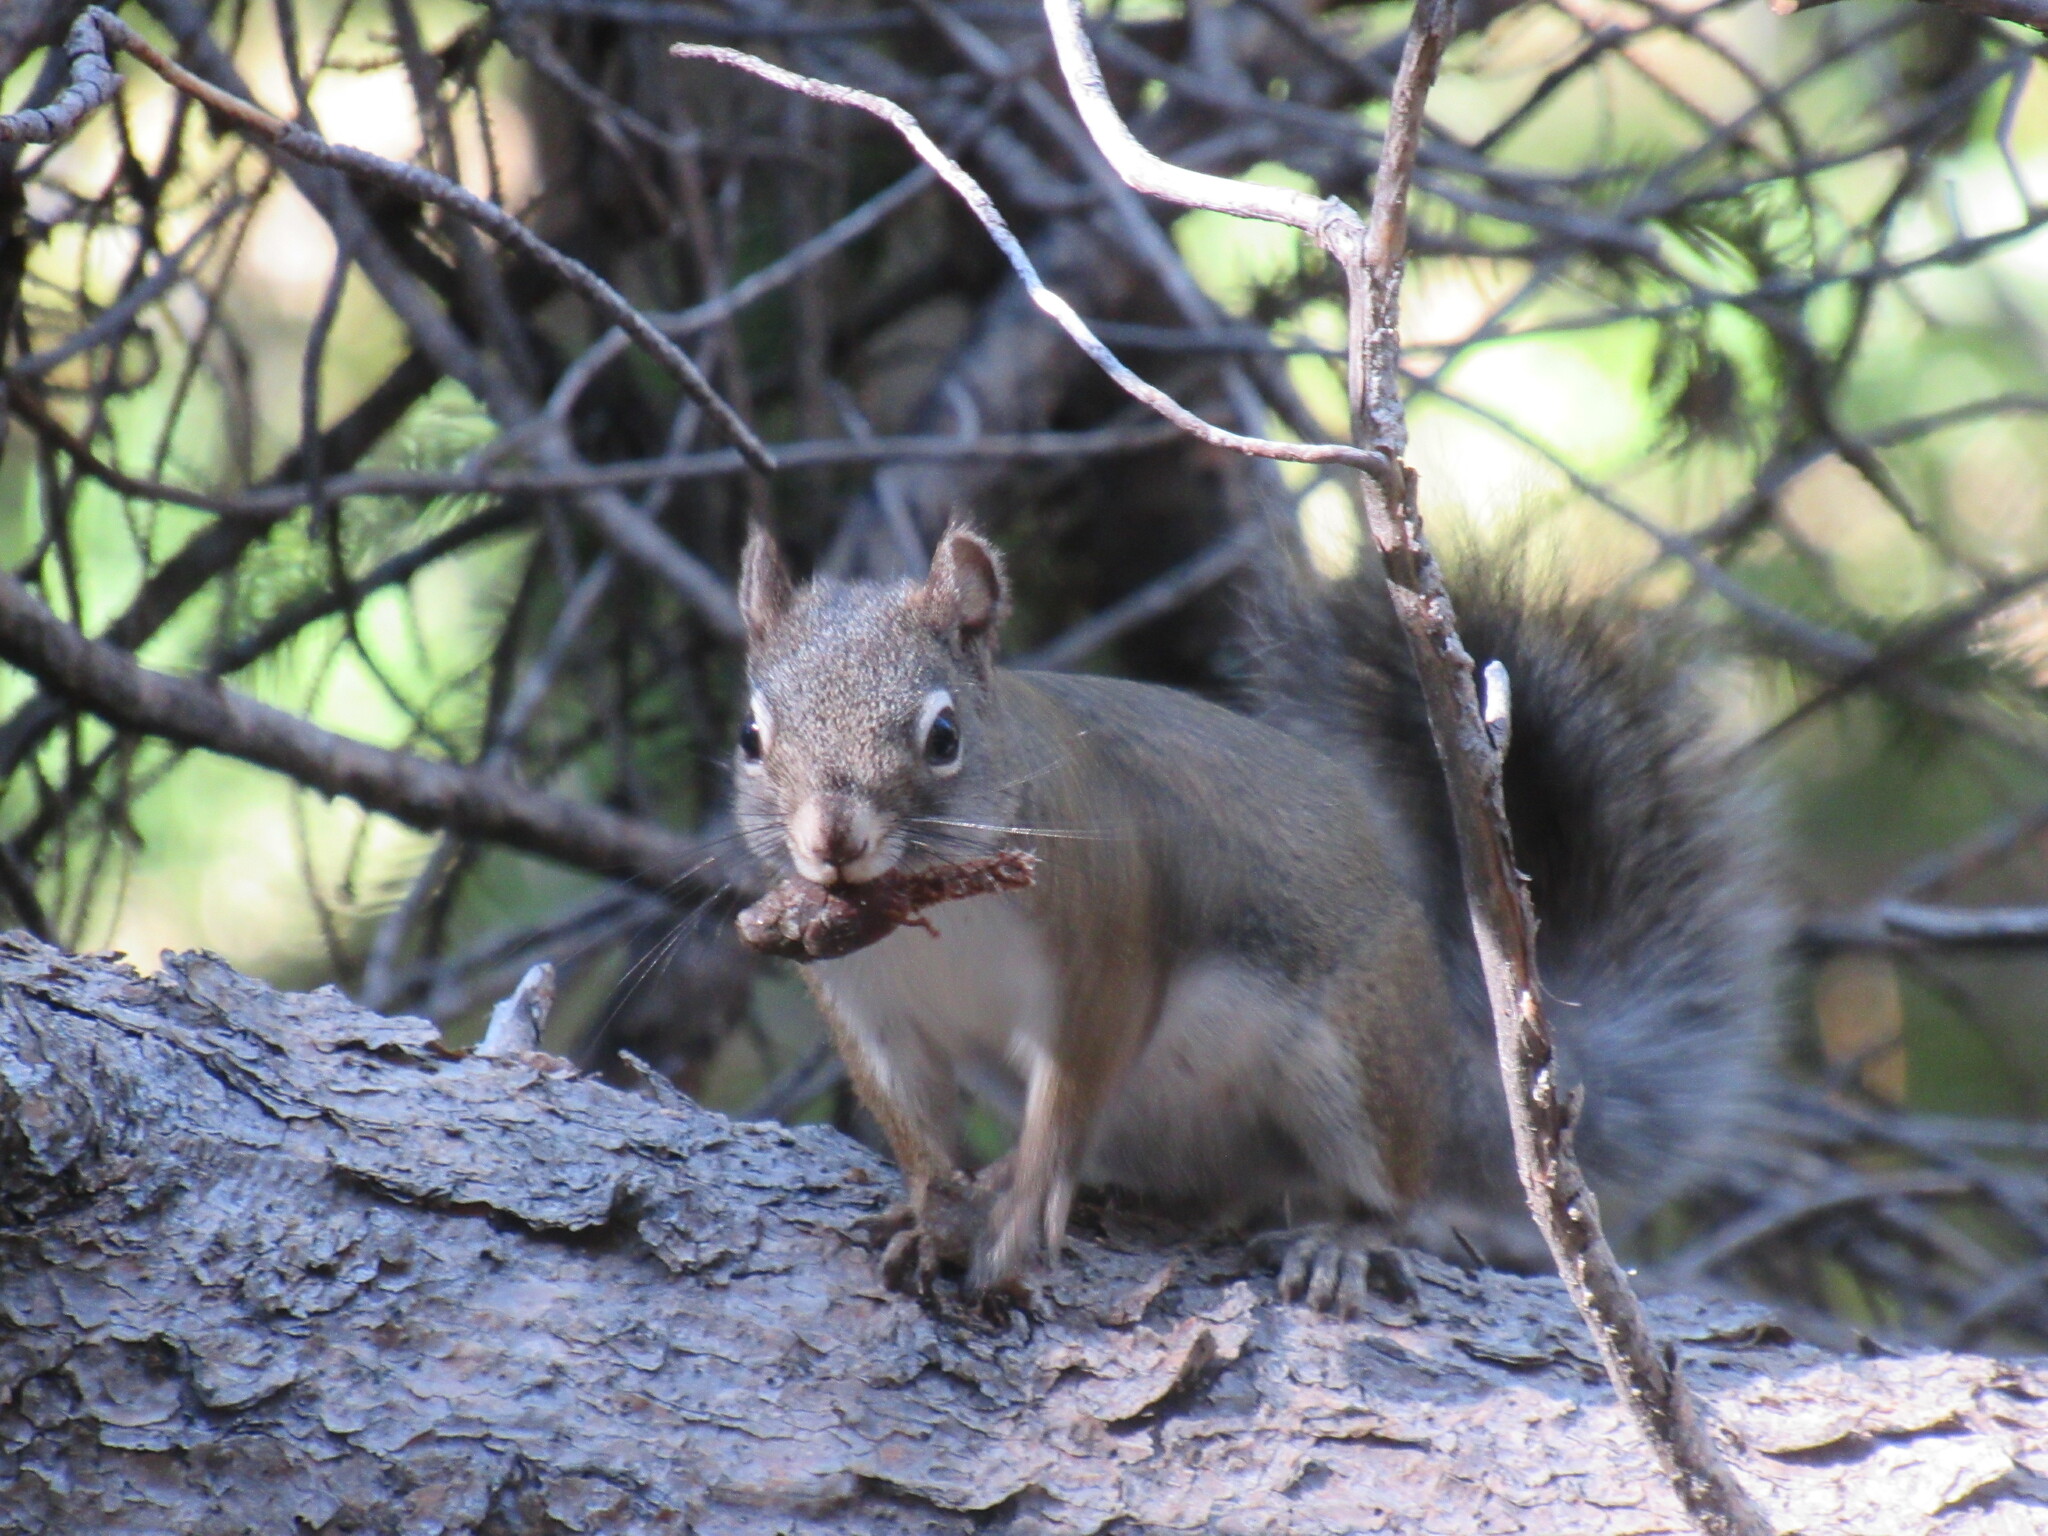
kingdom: Animalia
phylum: Chordata
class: Mammalia
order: Rodentia
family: Sciuridae
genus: Tamiasciurus
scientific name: Tamiasciurus hudsonicus
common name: Red squirrel
